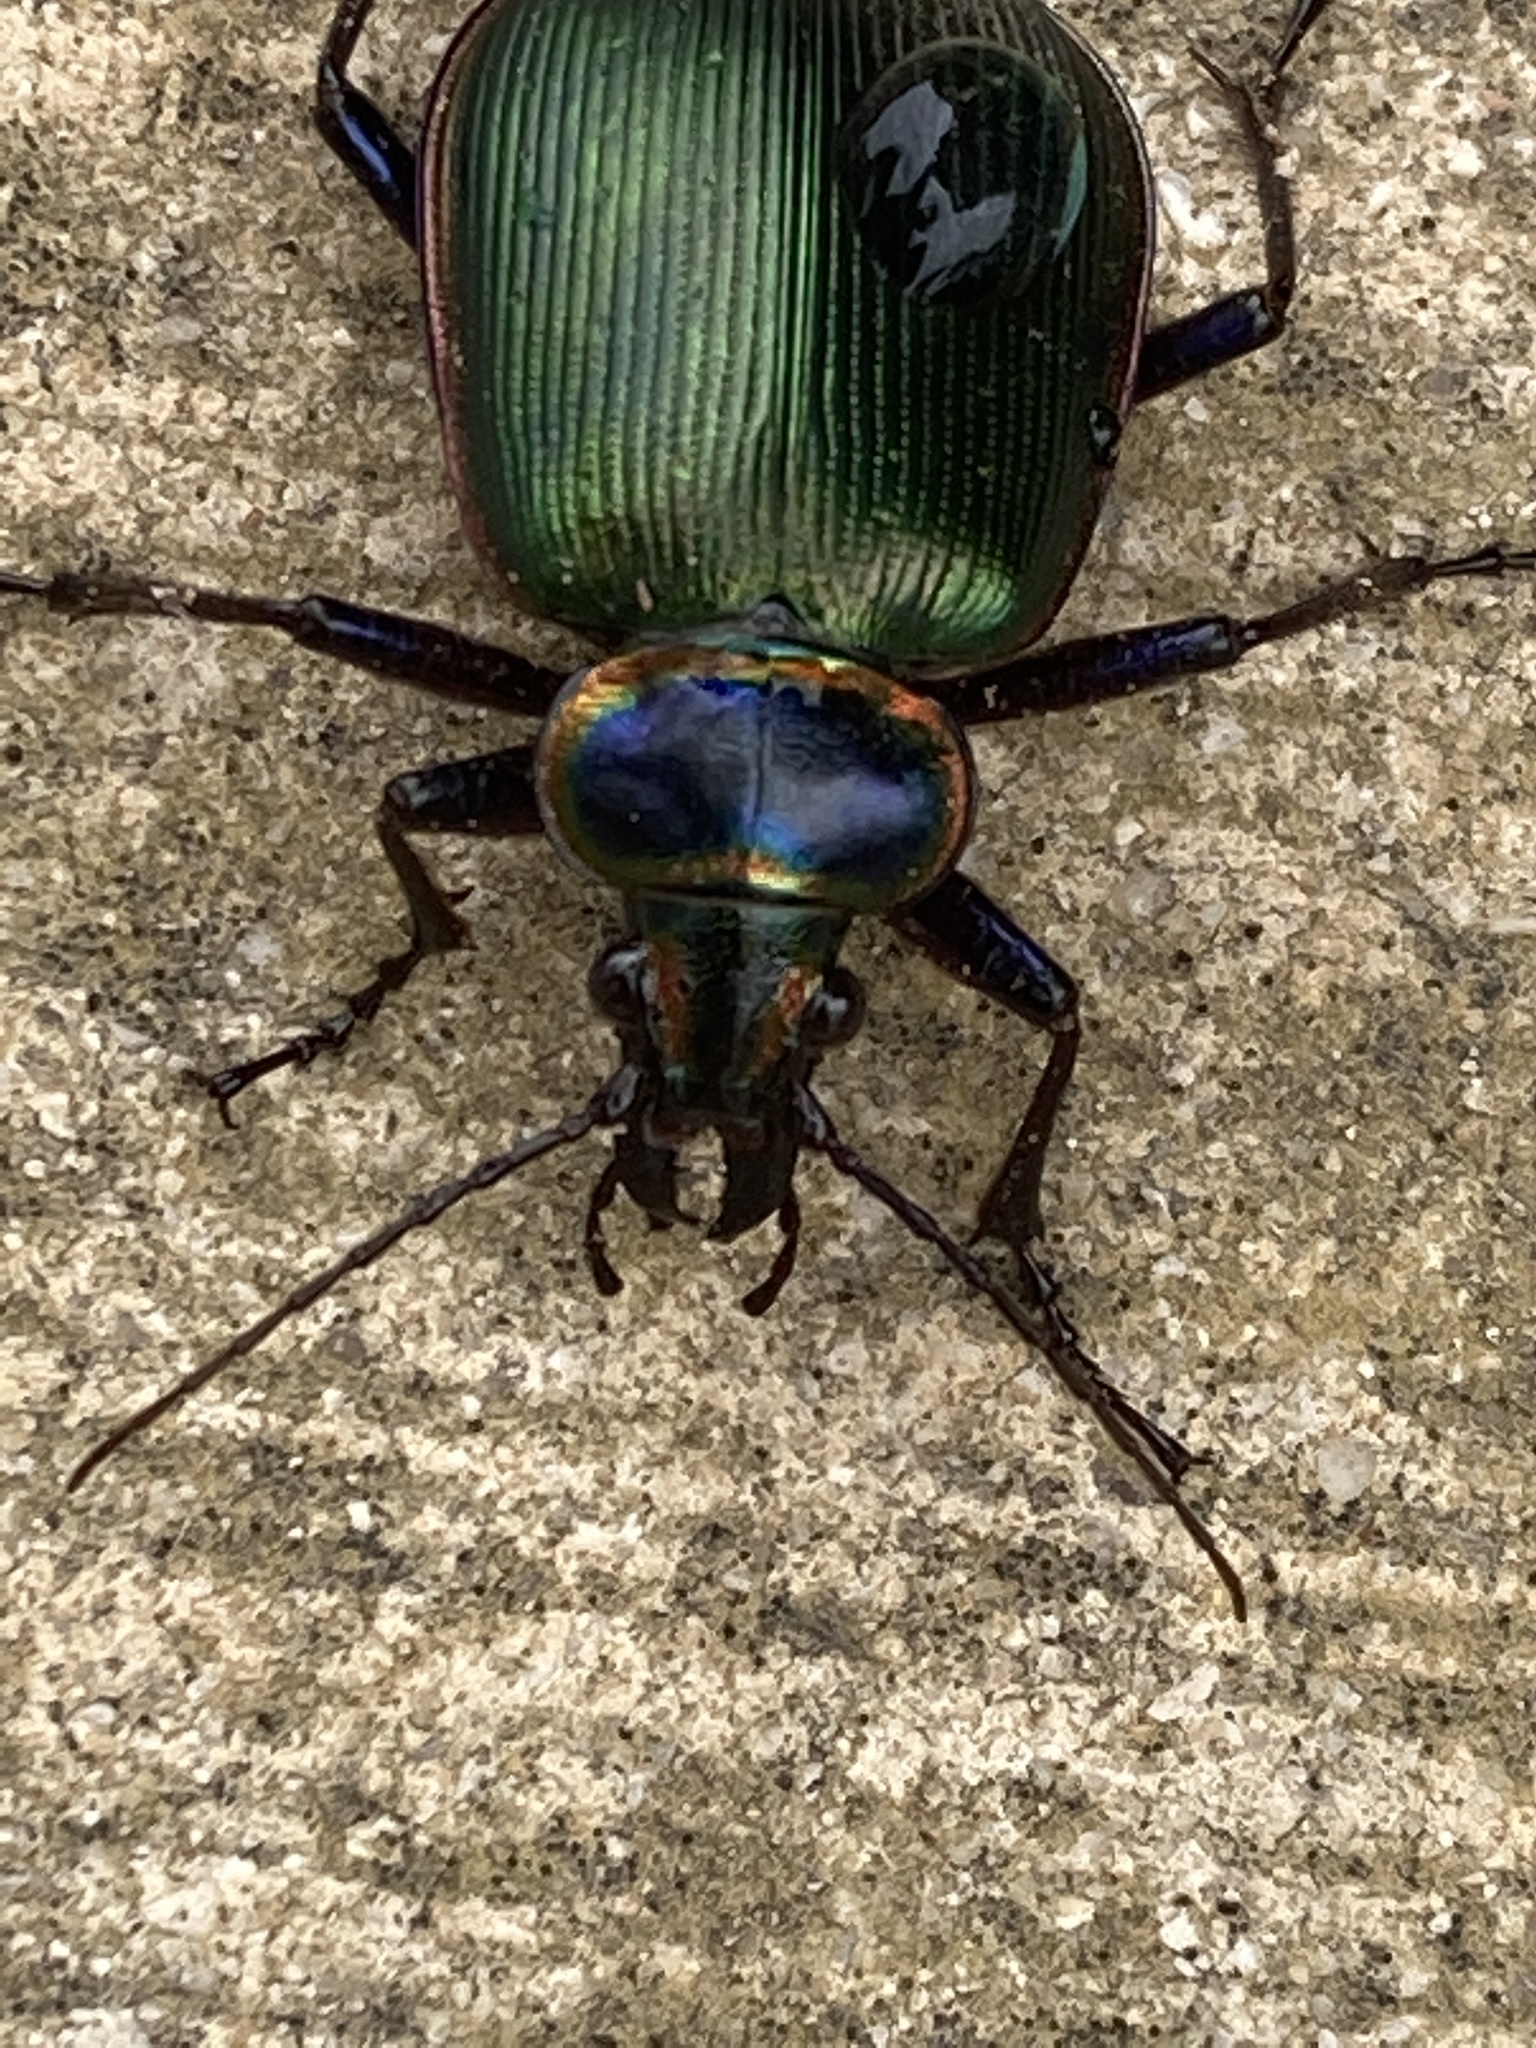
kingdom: Animalia
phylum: Arthropoda
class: Insecta
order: Coleoptera
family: Carabidae
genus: Calosoma
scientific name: Calosoma scrutator
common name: Fiery searcher beetle
